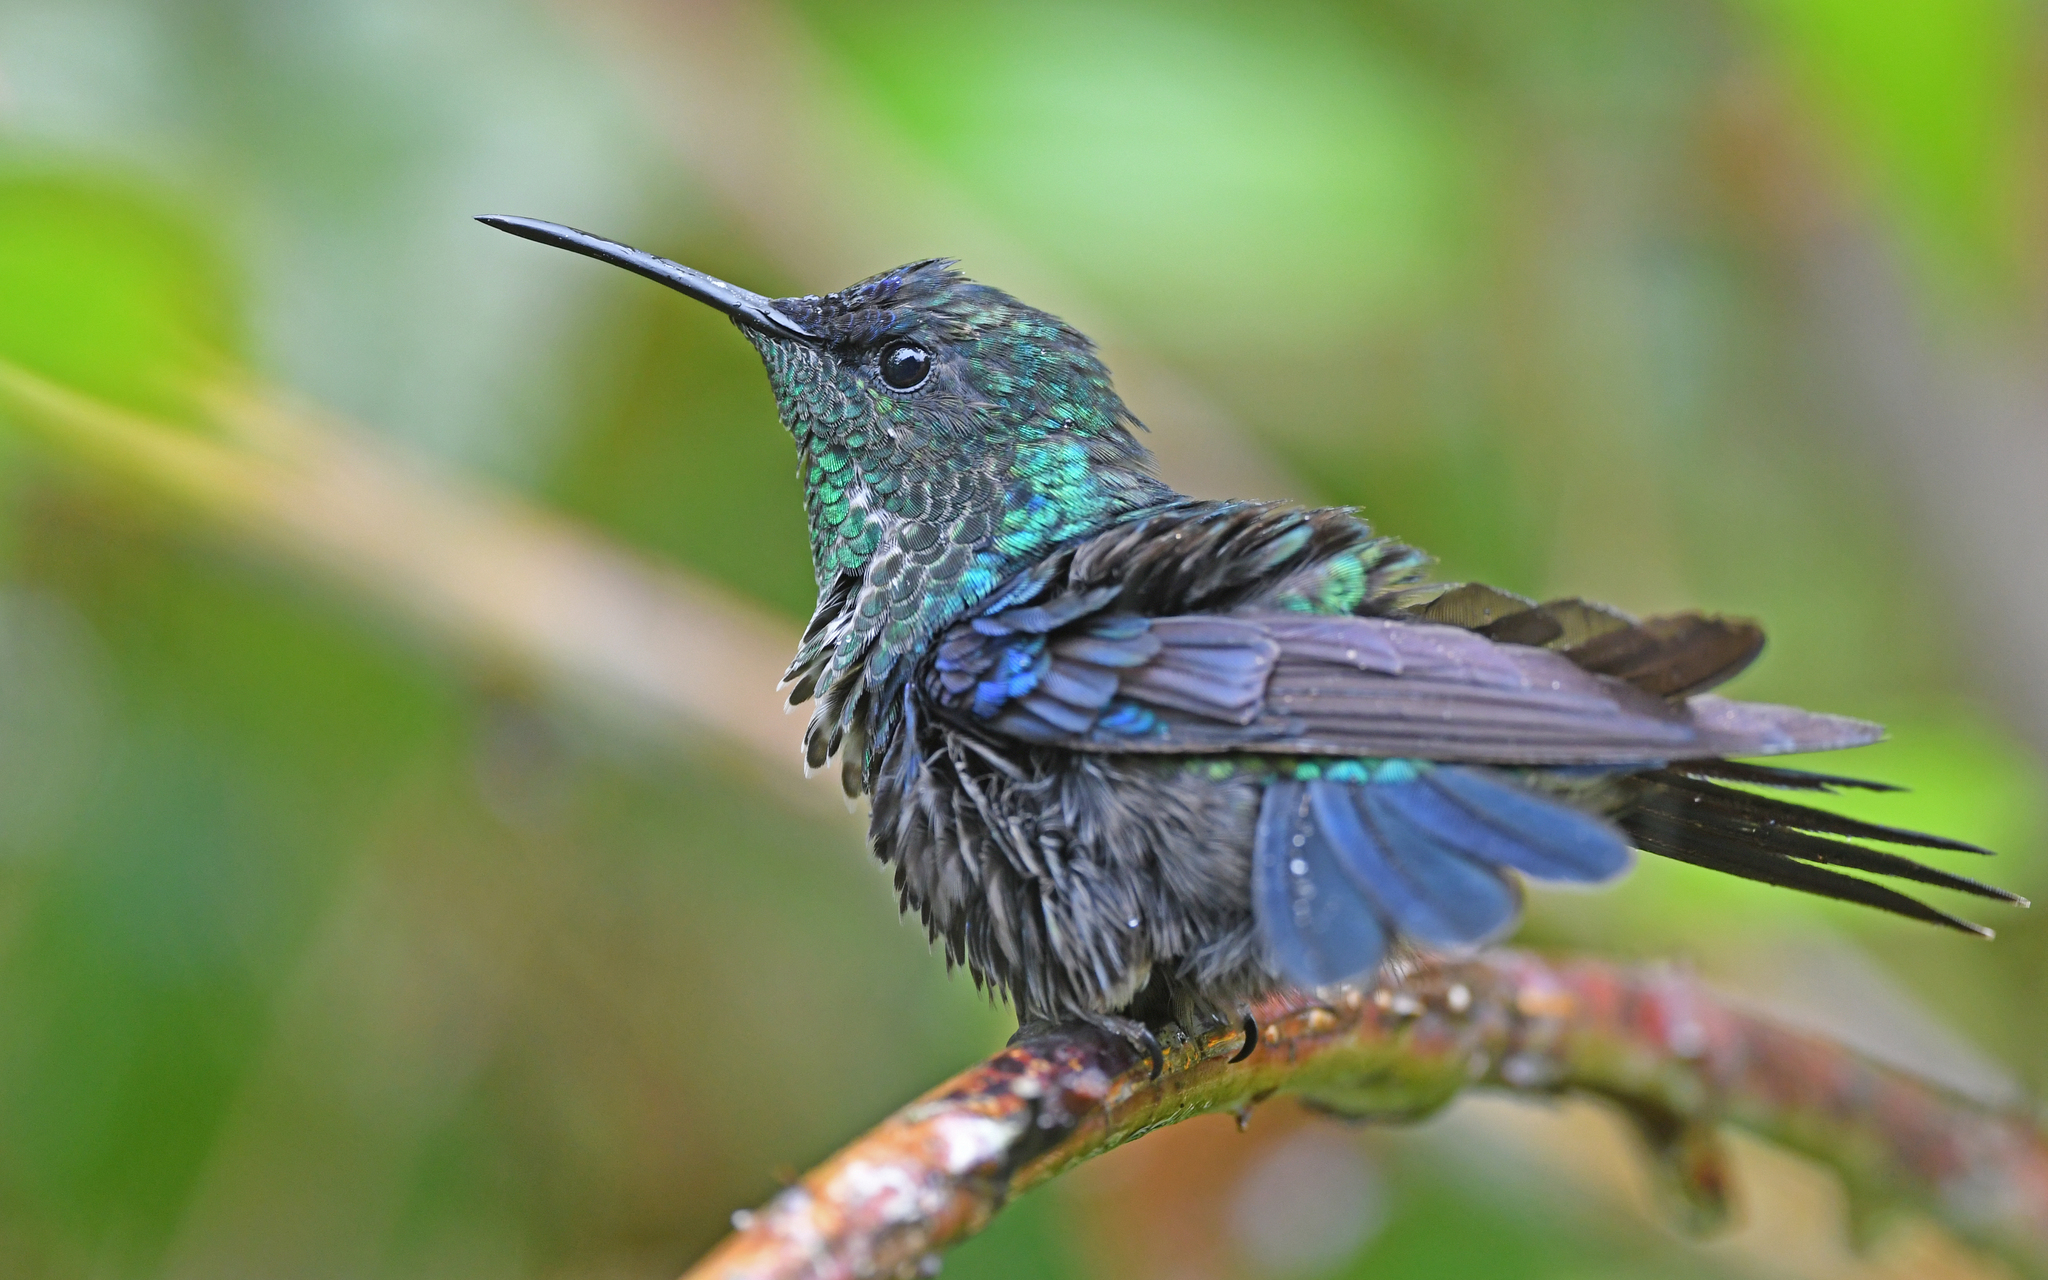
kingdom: Animalia
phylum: Chordata
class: Aves
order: Apodiformes
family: Trochilidae
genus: Thalurania
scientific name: Thalurania colombica
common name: Crowned woodnymph
